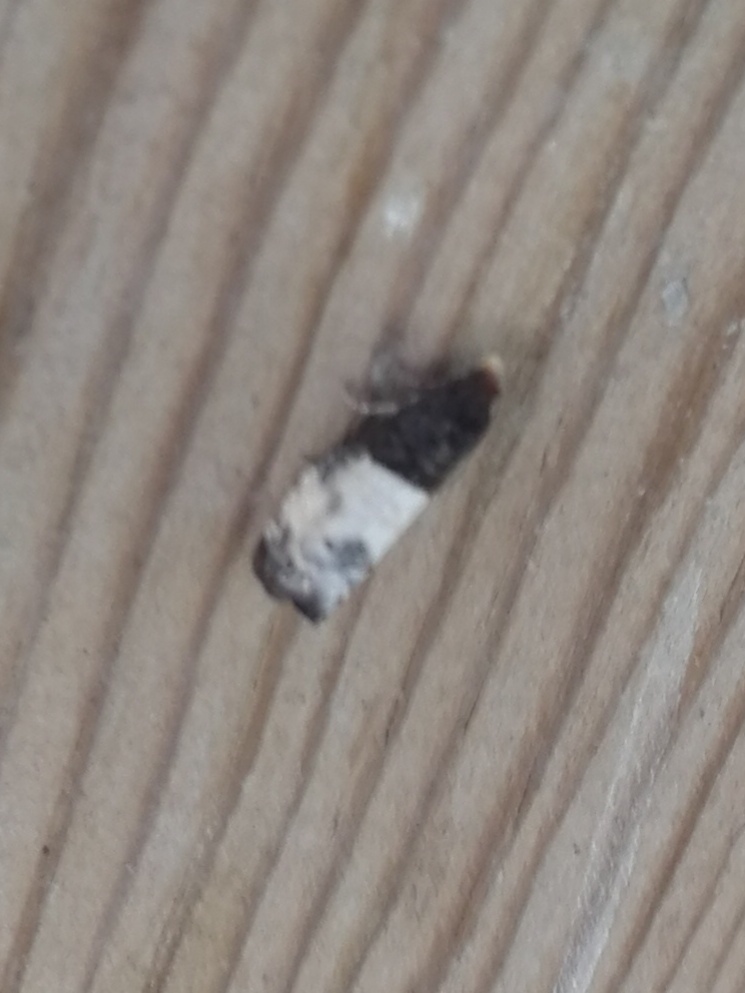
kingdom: Animalia
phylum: Arthropoda
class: Insecta
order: Lepidoptera
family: Tortricidae
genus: Notocelia
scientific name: Notocelia cynosbatella
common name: Yellow-faced bell moth
